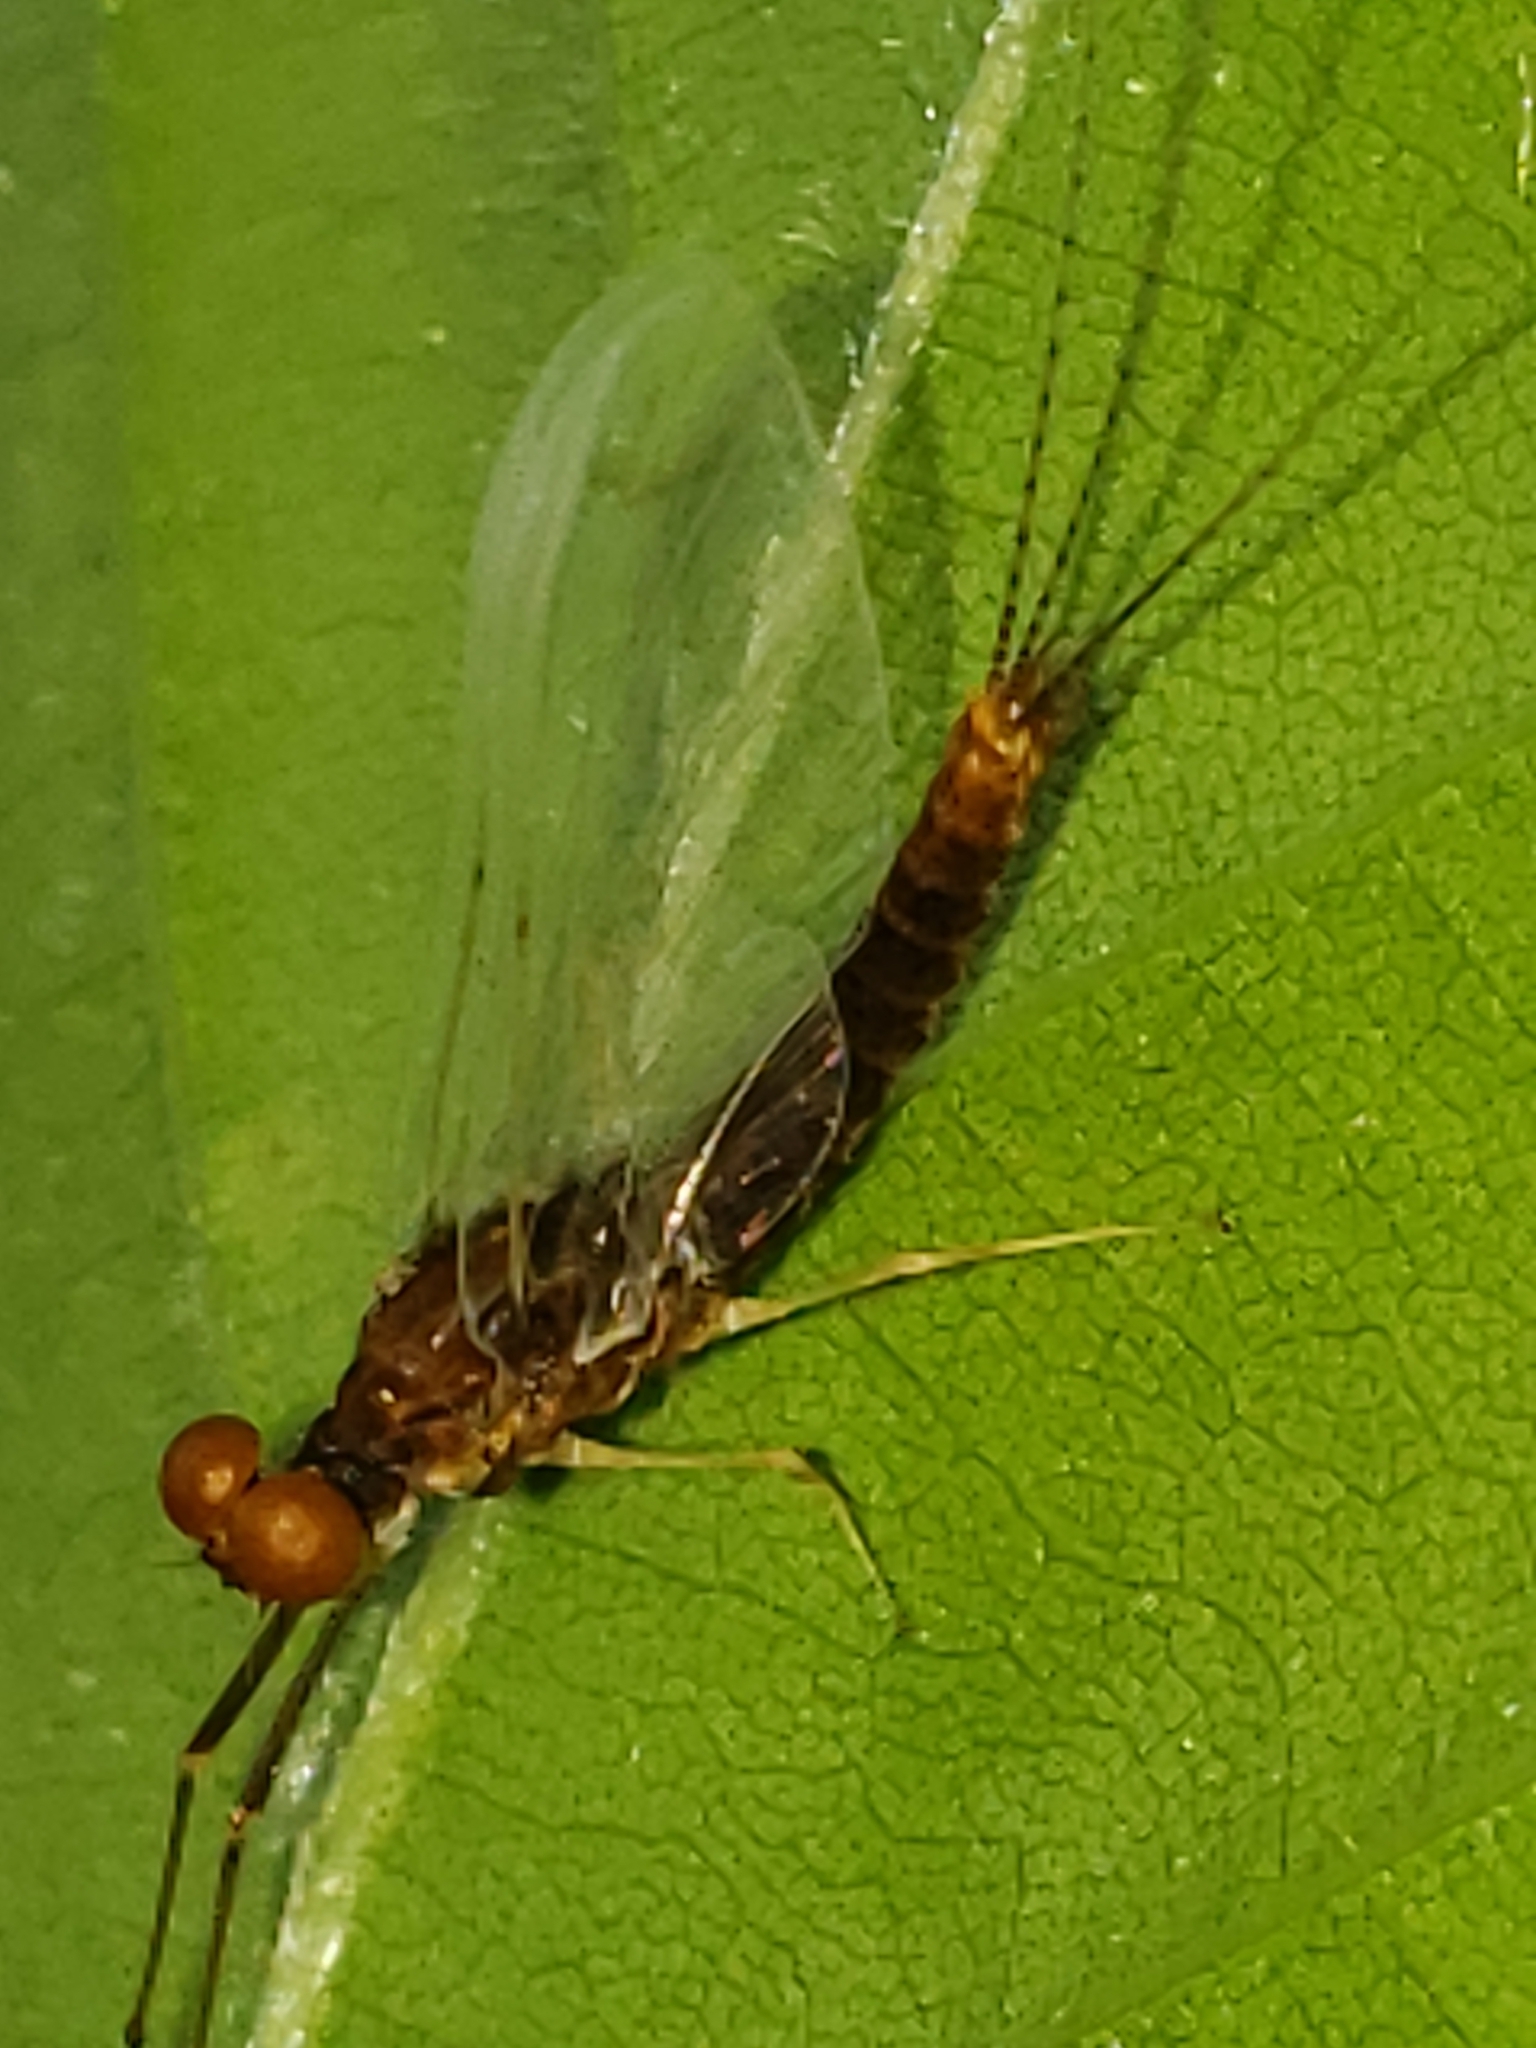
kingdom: Animalia
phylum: Arthropoda
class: Insecta
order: Ephemeroptera
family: Ephemerellidae
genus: Ephemerella
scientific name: Ephemerella needhami
